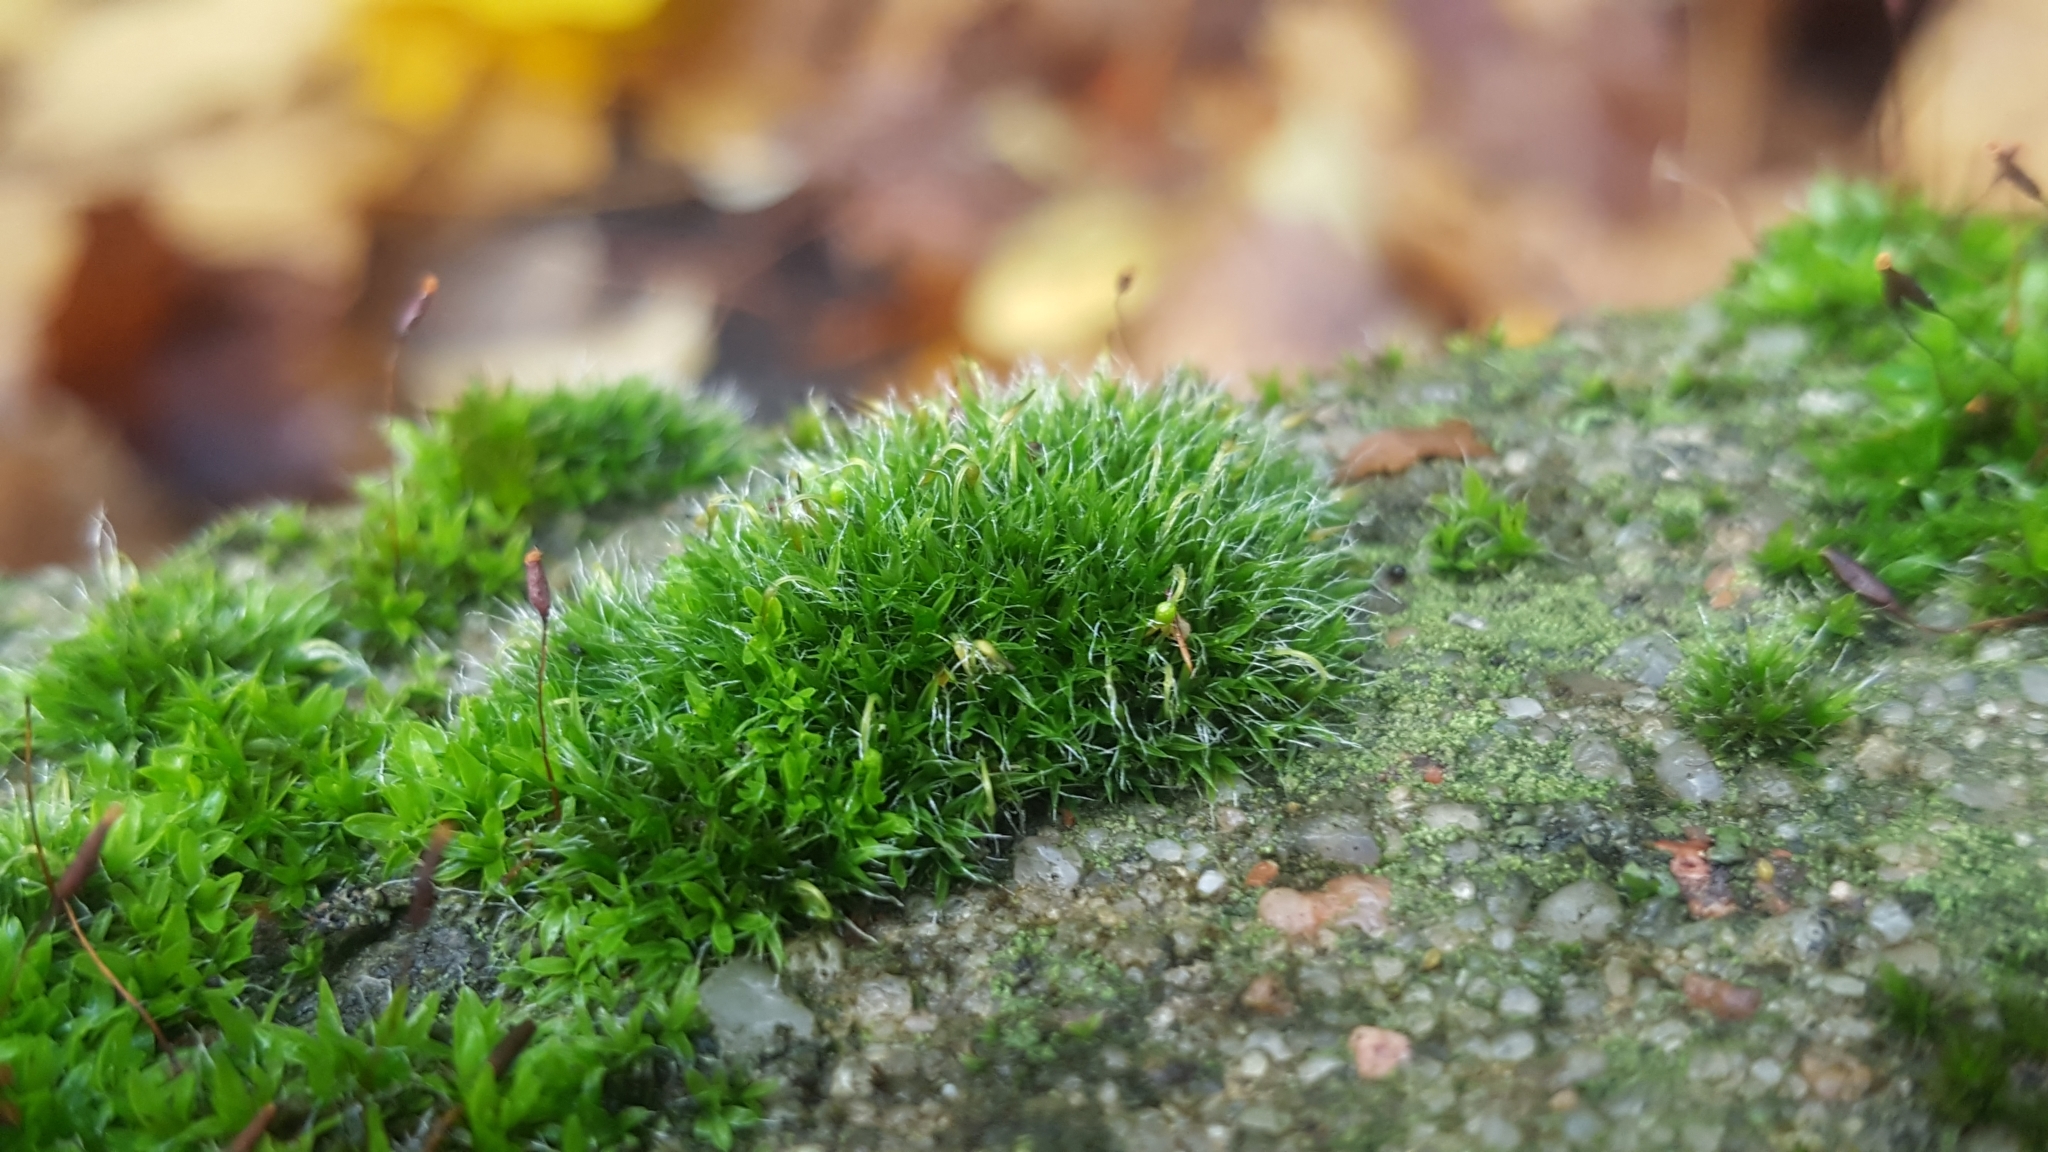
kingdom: Plantae
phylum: Bryophyta
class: Bryopsida
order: Grimmiales
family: Grimmiaceae
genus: Grimmia
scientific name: Grimmia pulvinata
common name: Grey-cushioned grimmia
